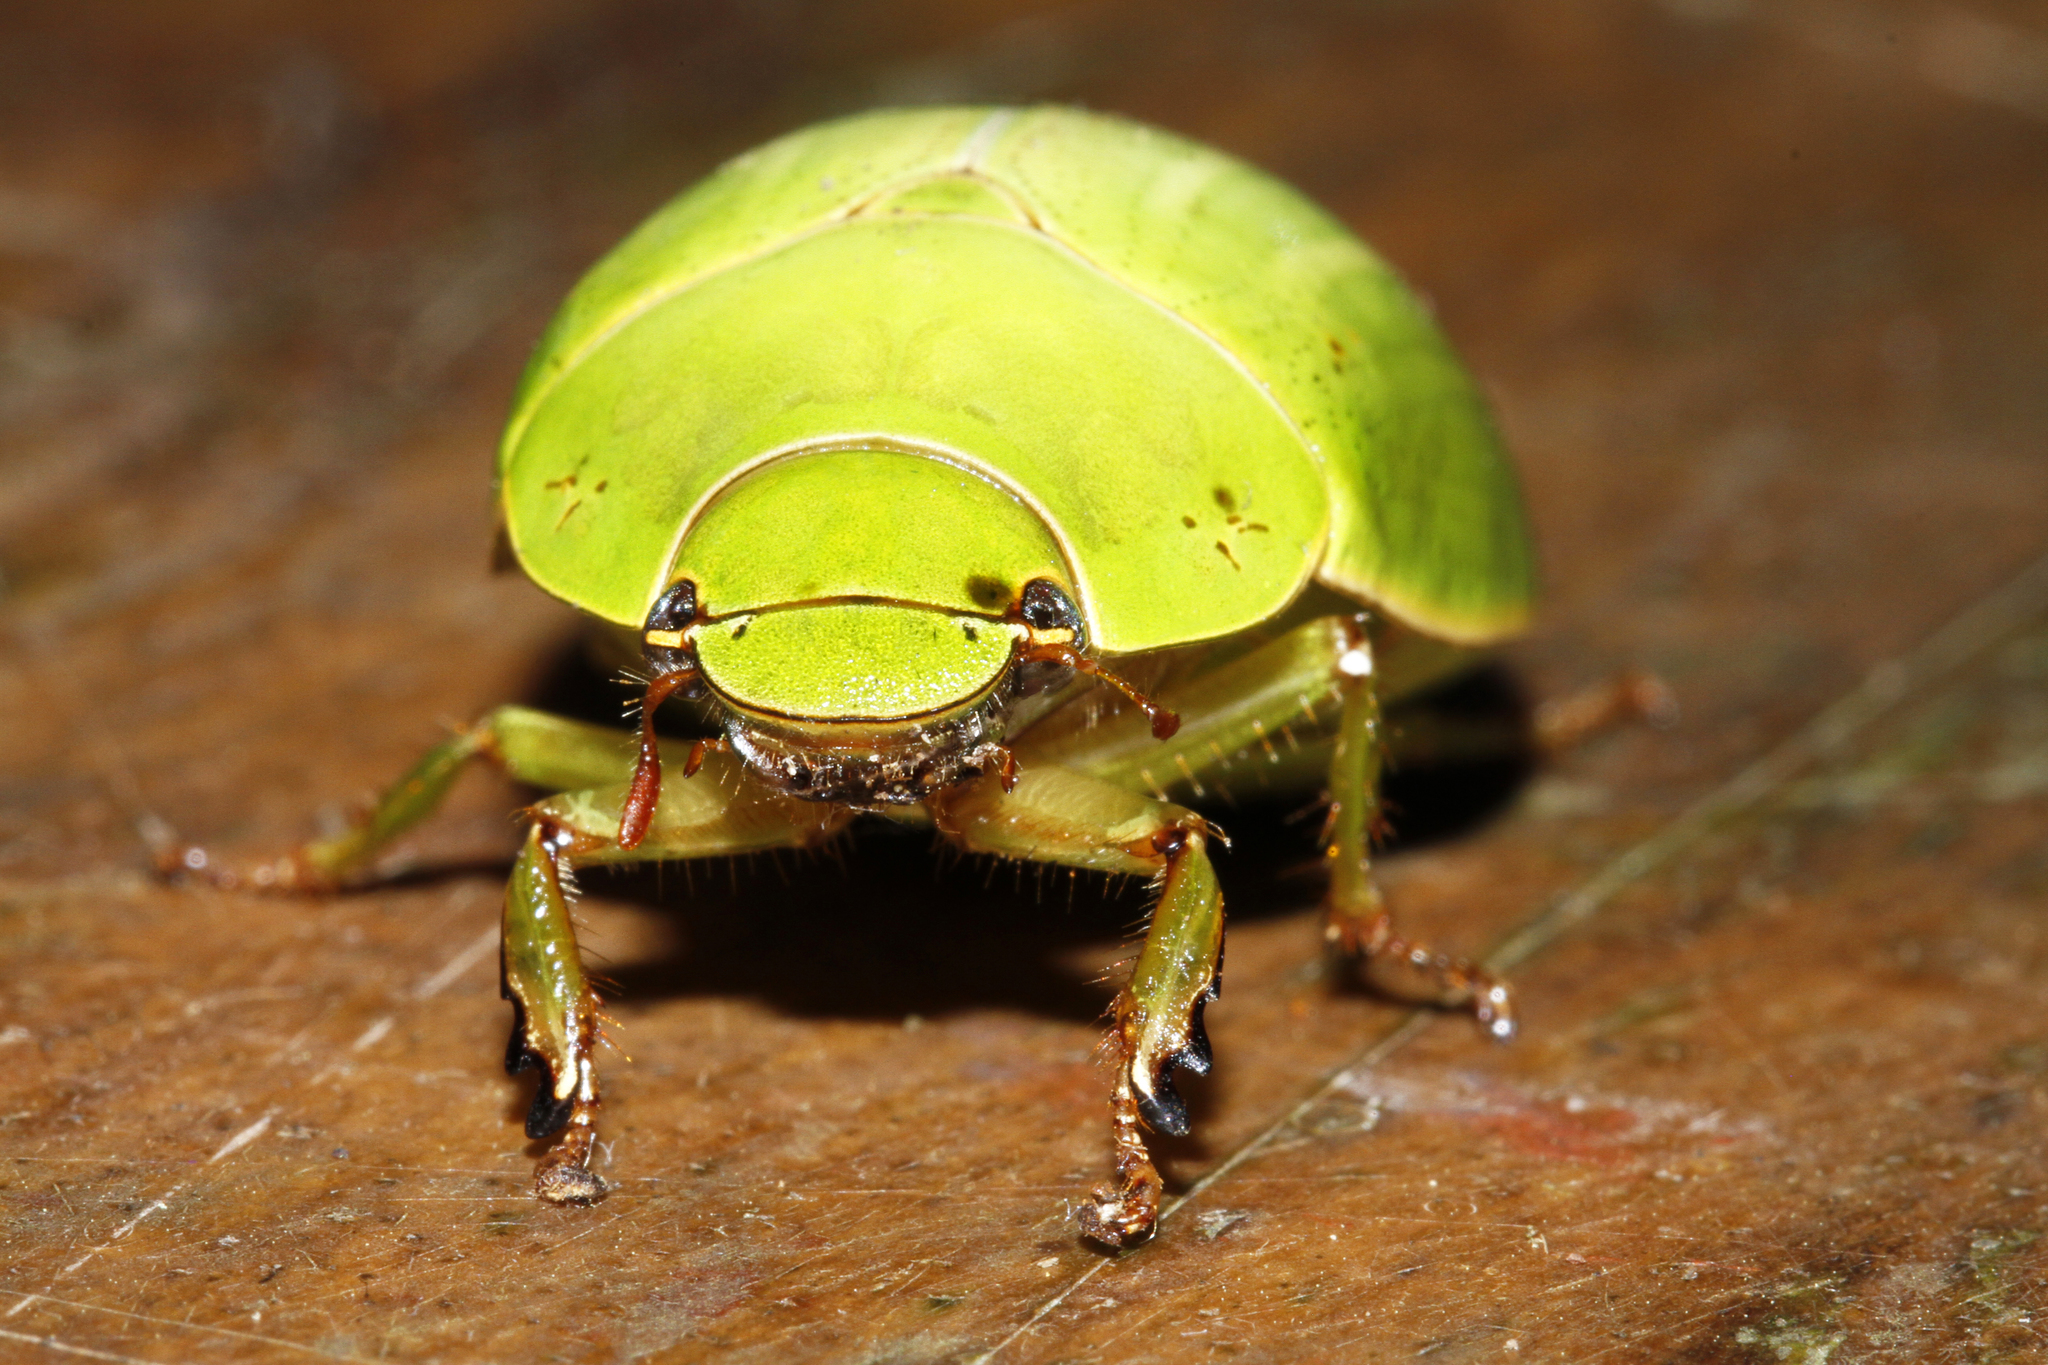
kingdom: Animalia
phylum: Arthropoda
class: Insecta
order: Coleoptera
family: Scarabaeidae
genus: Platycoelia
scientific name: Platycoelia mesosternalis
